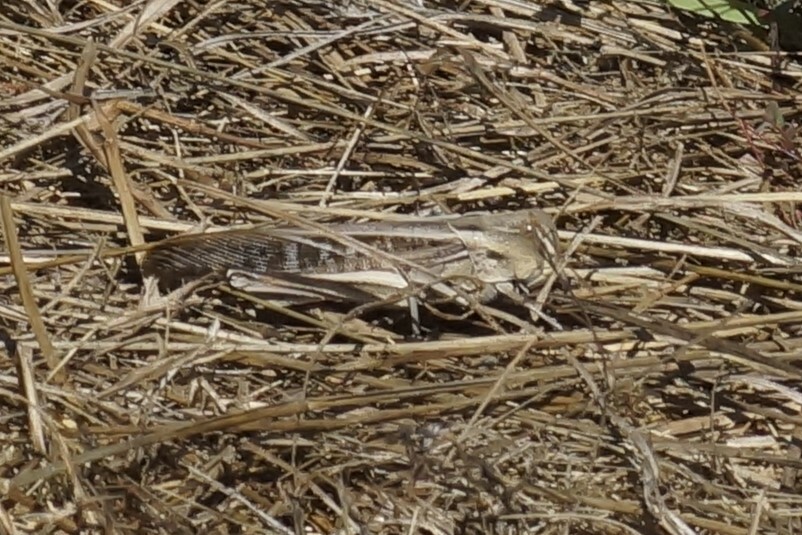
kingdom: Animalia
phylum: Arthropoda
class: Insecta
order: Orthoptera
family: Acrididae
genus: Gastrimargus
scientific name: Gastrimargus musicus
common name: Yellow-winged locust
